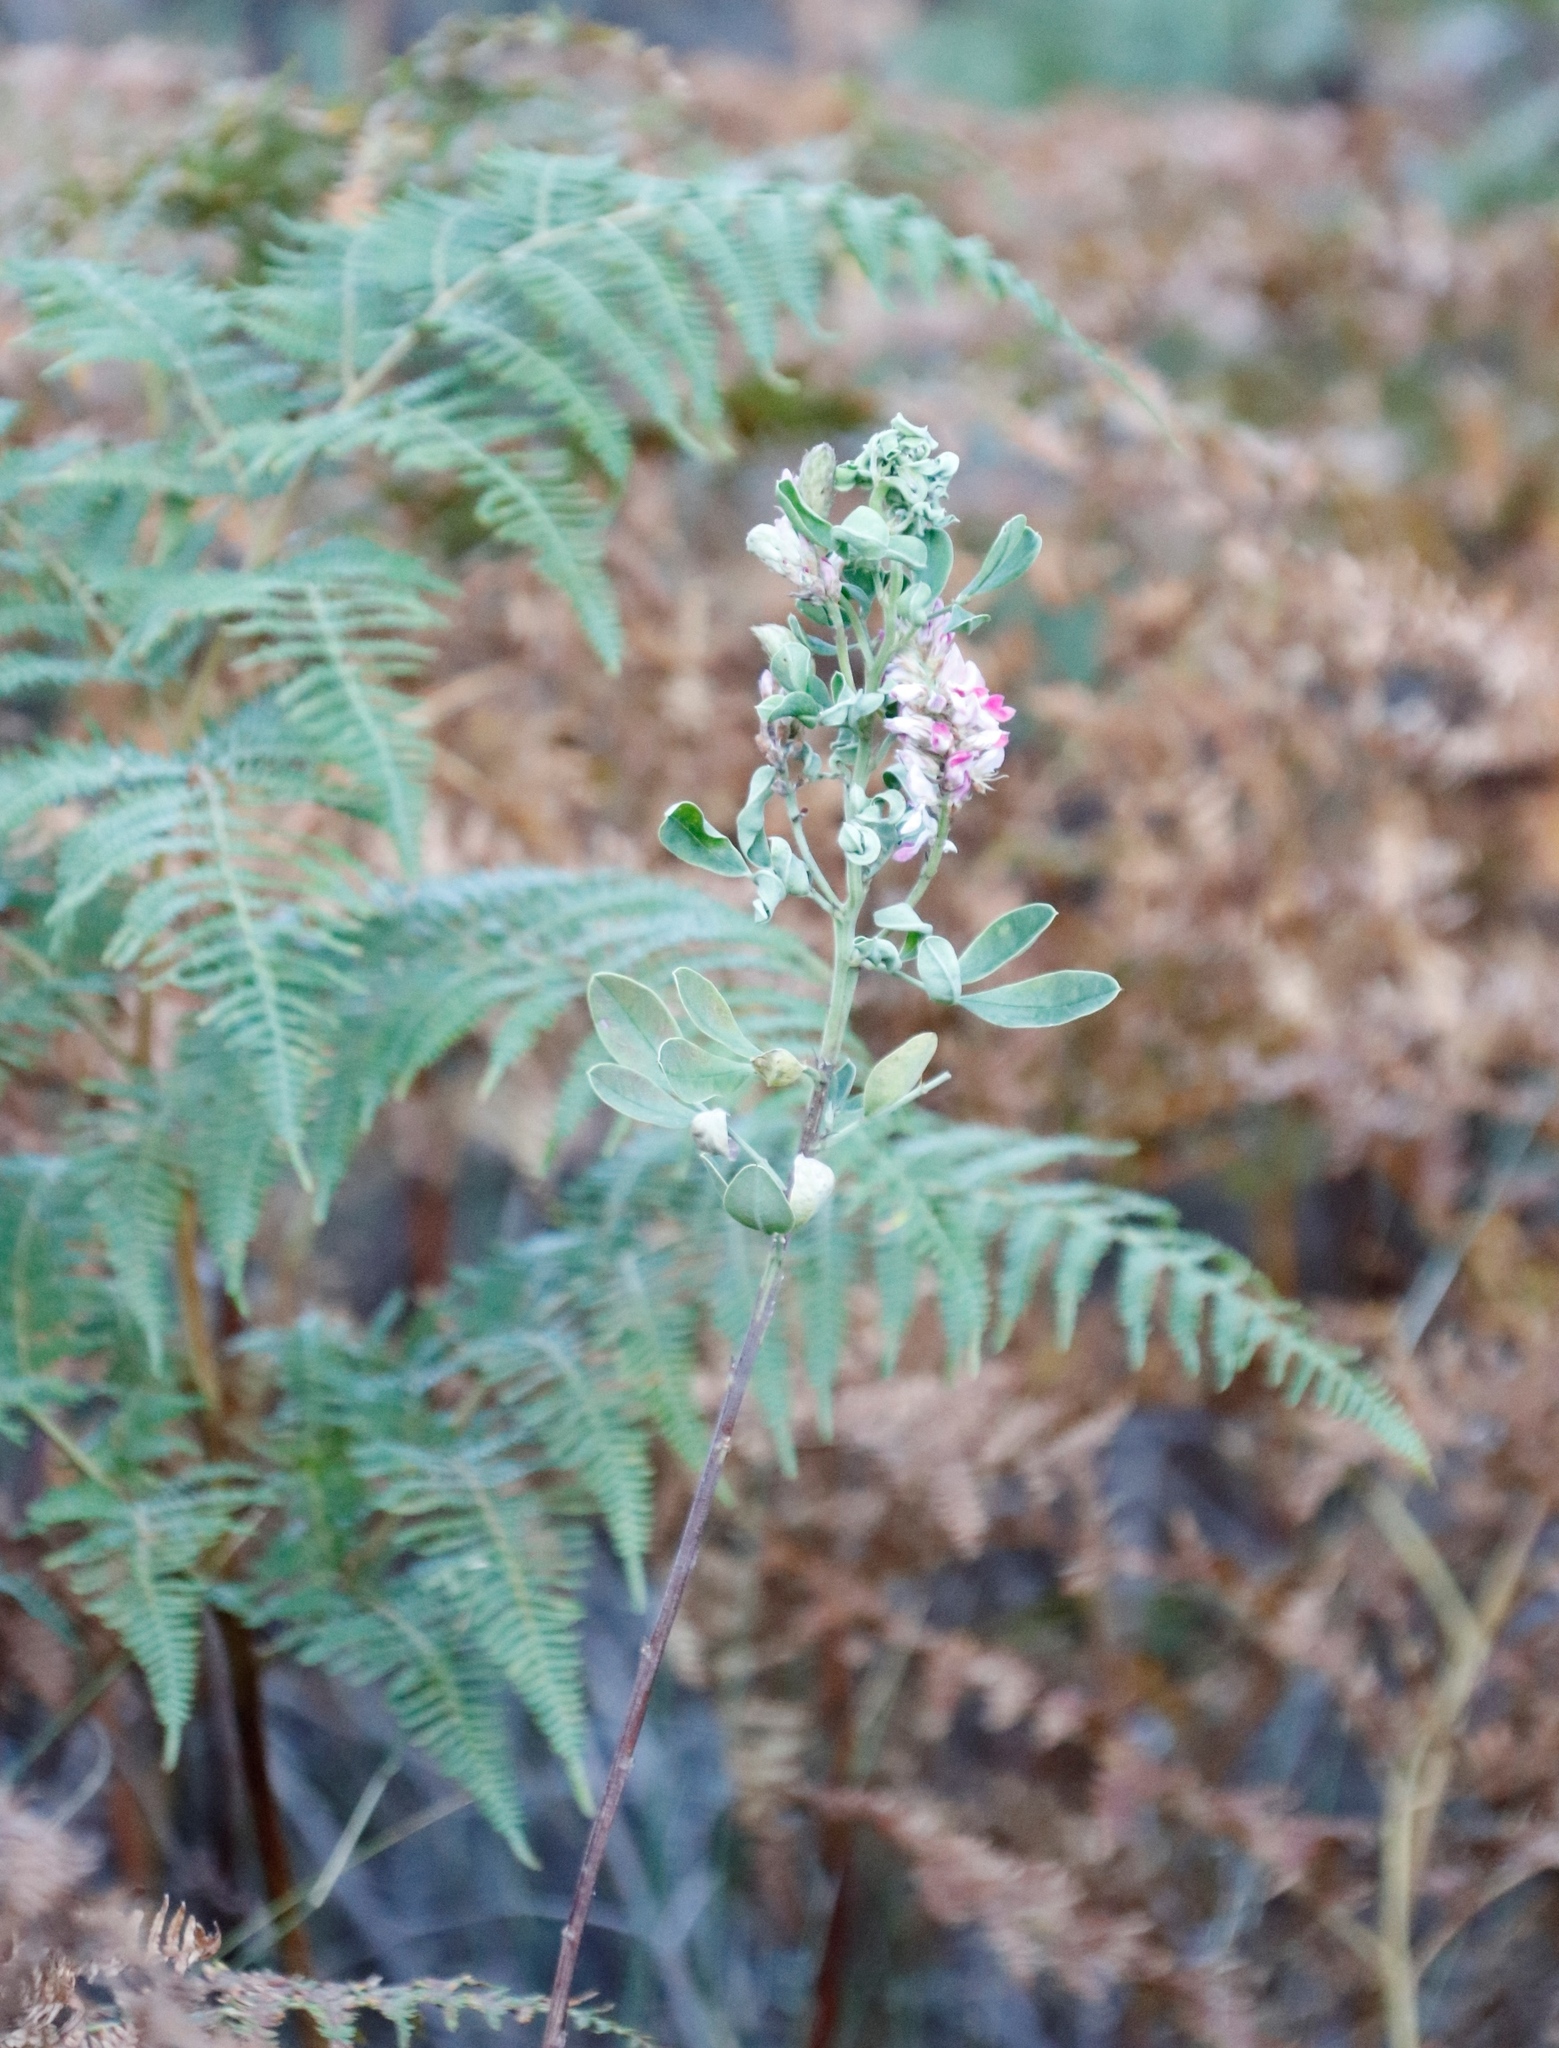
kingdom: Plantae
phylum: Tracheophyta
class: Polypodiopsida
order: Polypodiales
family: Dennstaedtiaceae
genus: Pteridium
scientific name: Pteridium aquilinum
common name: Bracken
